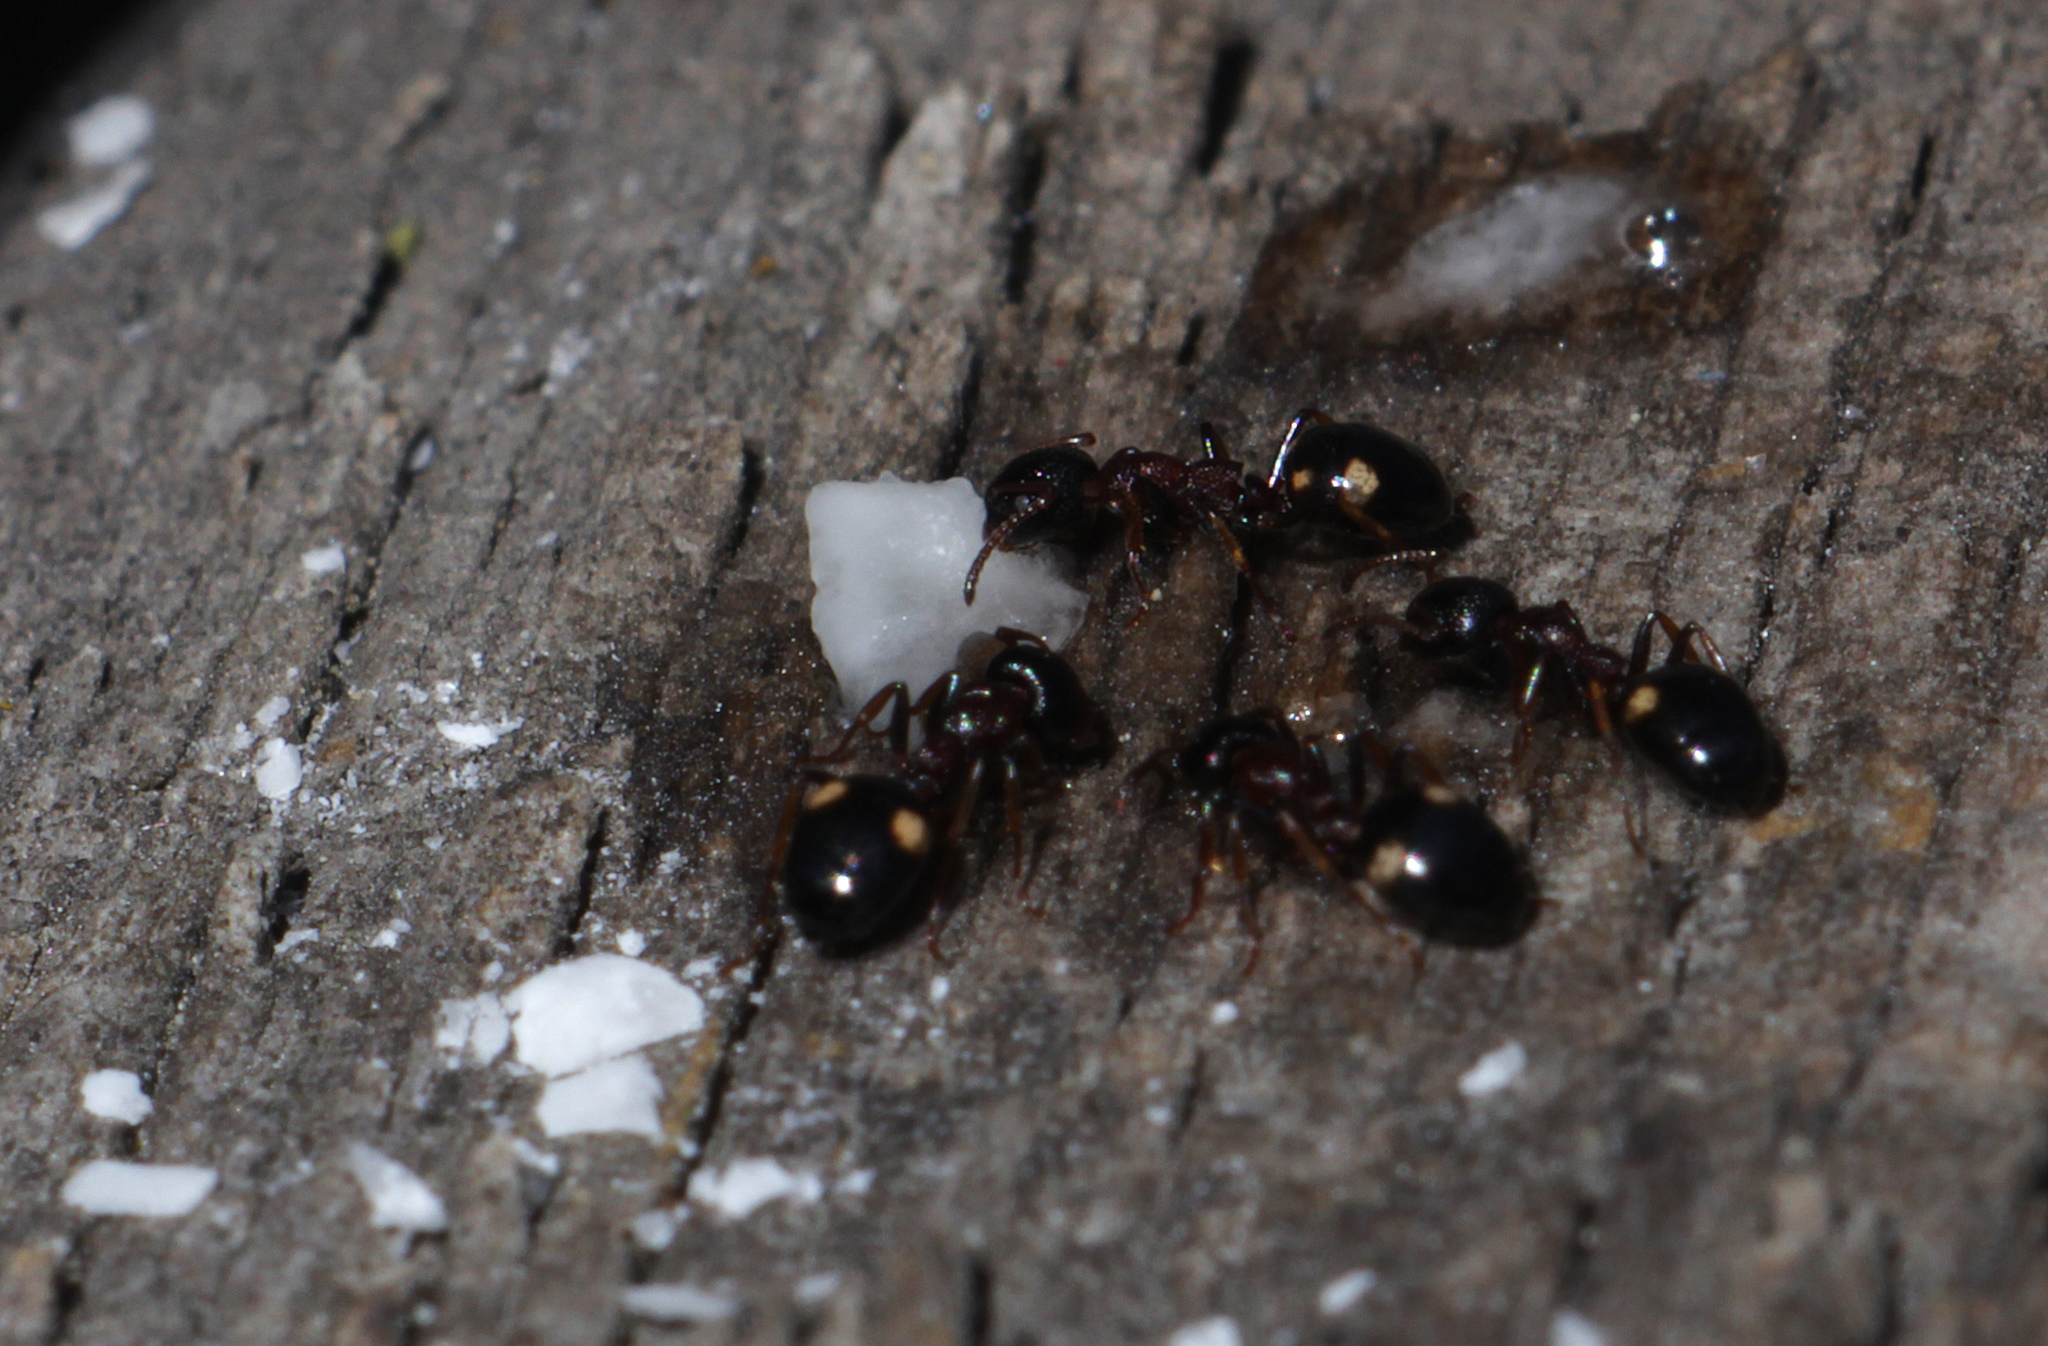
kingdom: Animalia
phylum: Arthropoda
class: Insecta
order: Hymenoptera
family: Formicidae
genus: Dolichoderus
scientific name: Dolichoderus quadripunctatus
